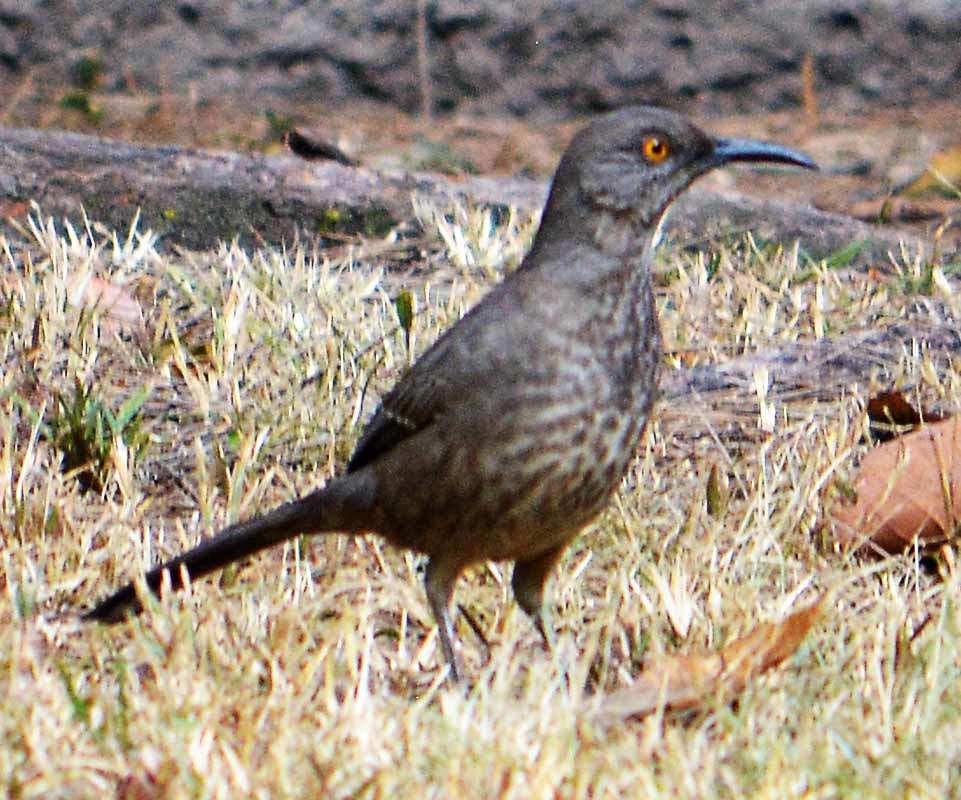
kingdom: Animalia
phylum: Chordata
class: Aves
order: Passeriformes
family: Mimidae
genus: Toxostoma
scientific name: Toxostoma curvirostre
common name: Curve-billed thrasher
